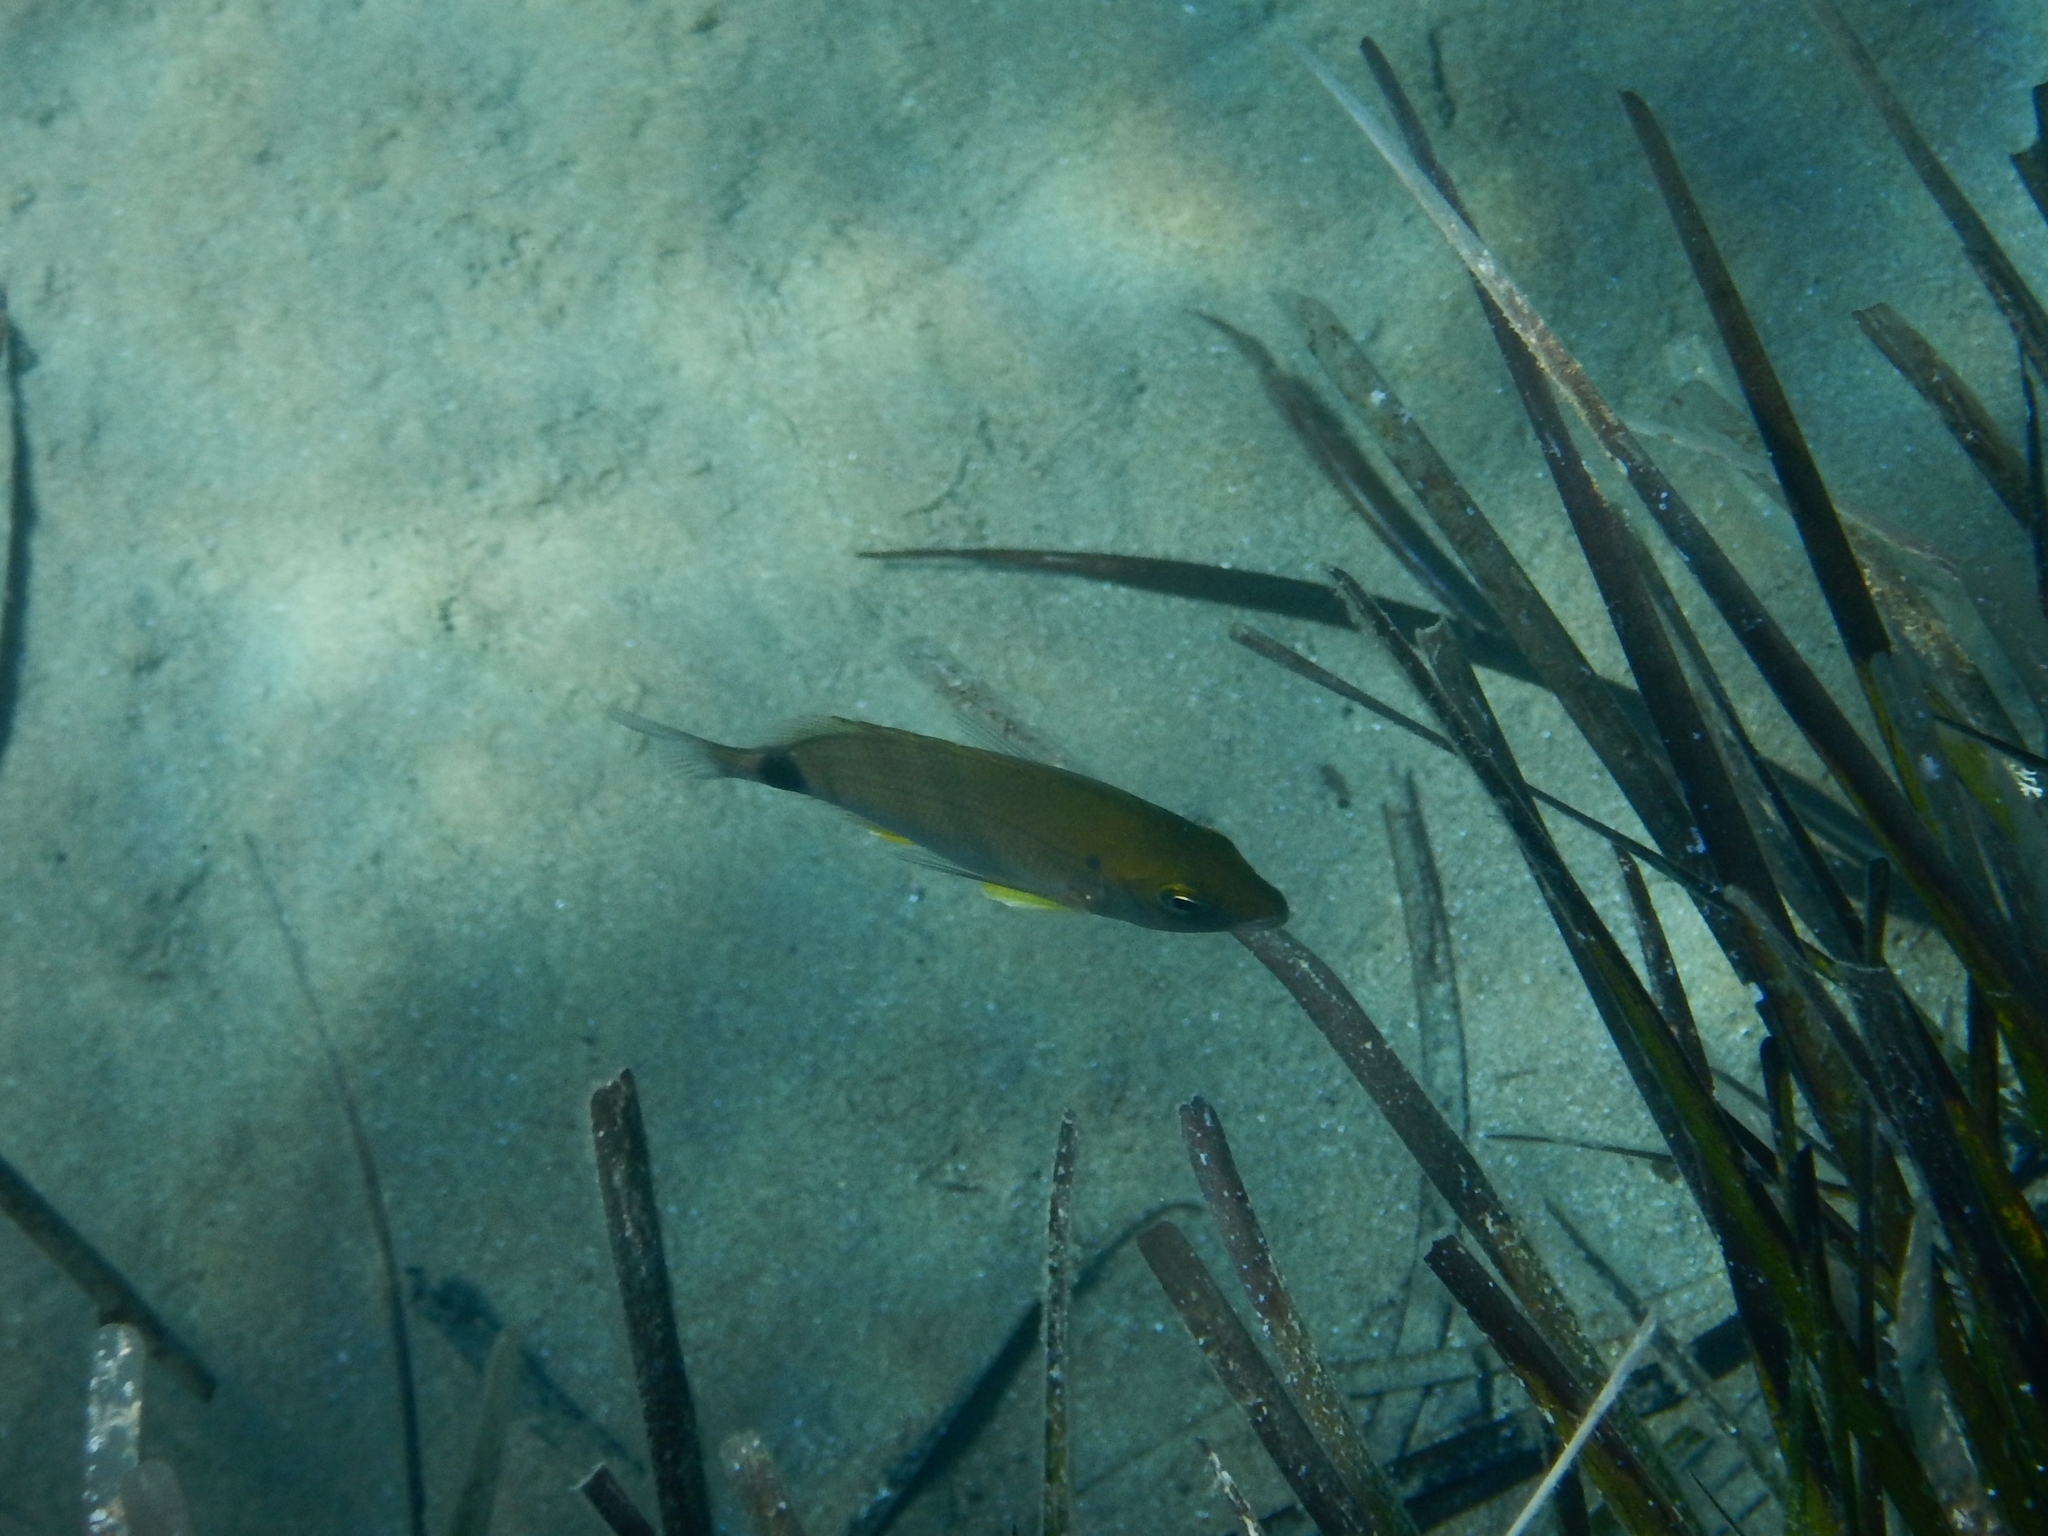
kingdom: Animalia
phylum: Chordata
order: Perciformes
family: Sparidae
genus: Diplodus
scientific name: Diplodus annularis
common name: Annular seabream
